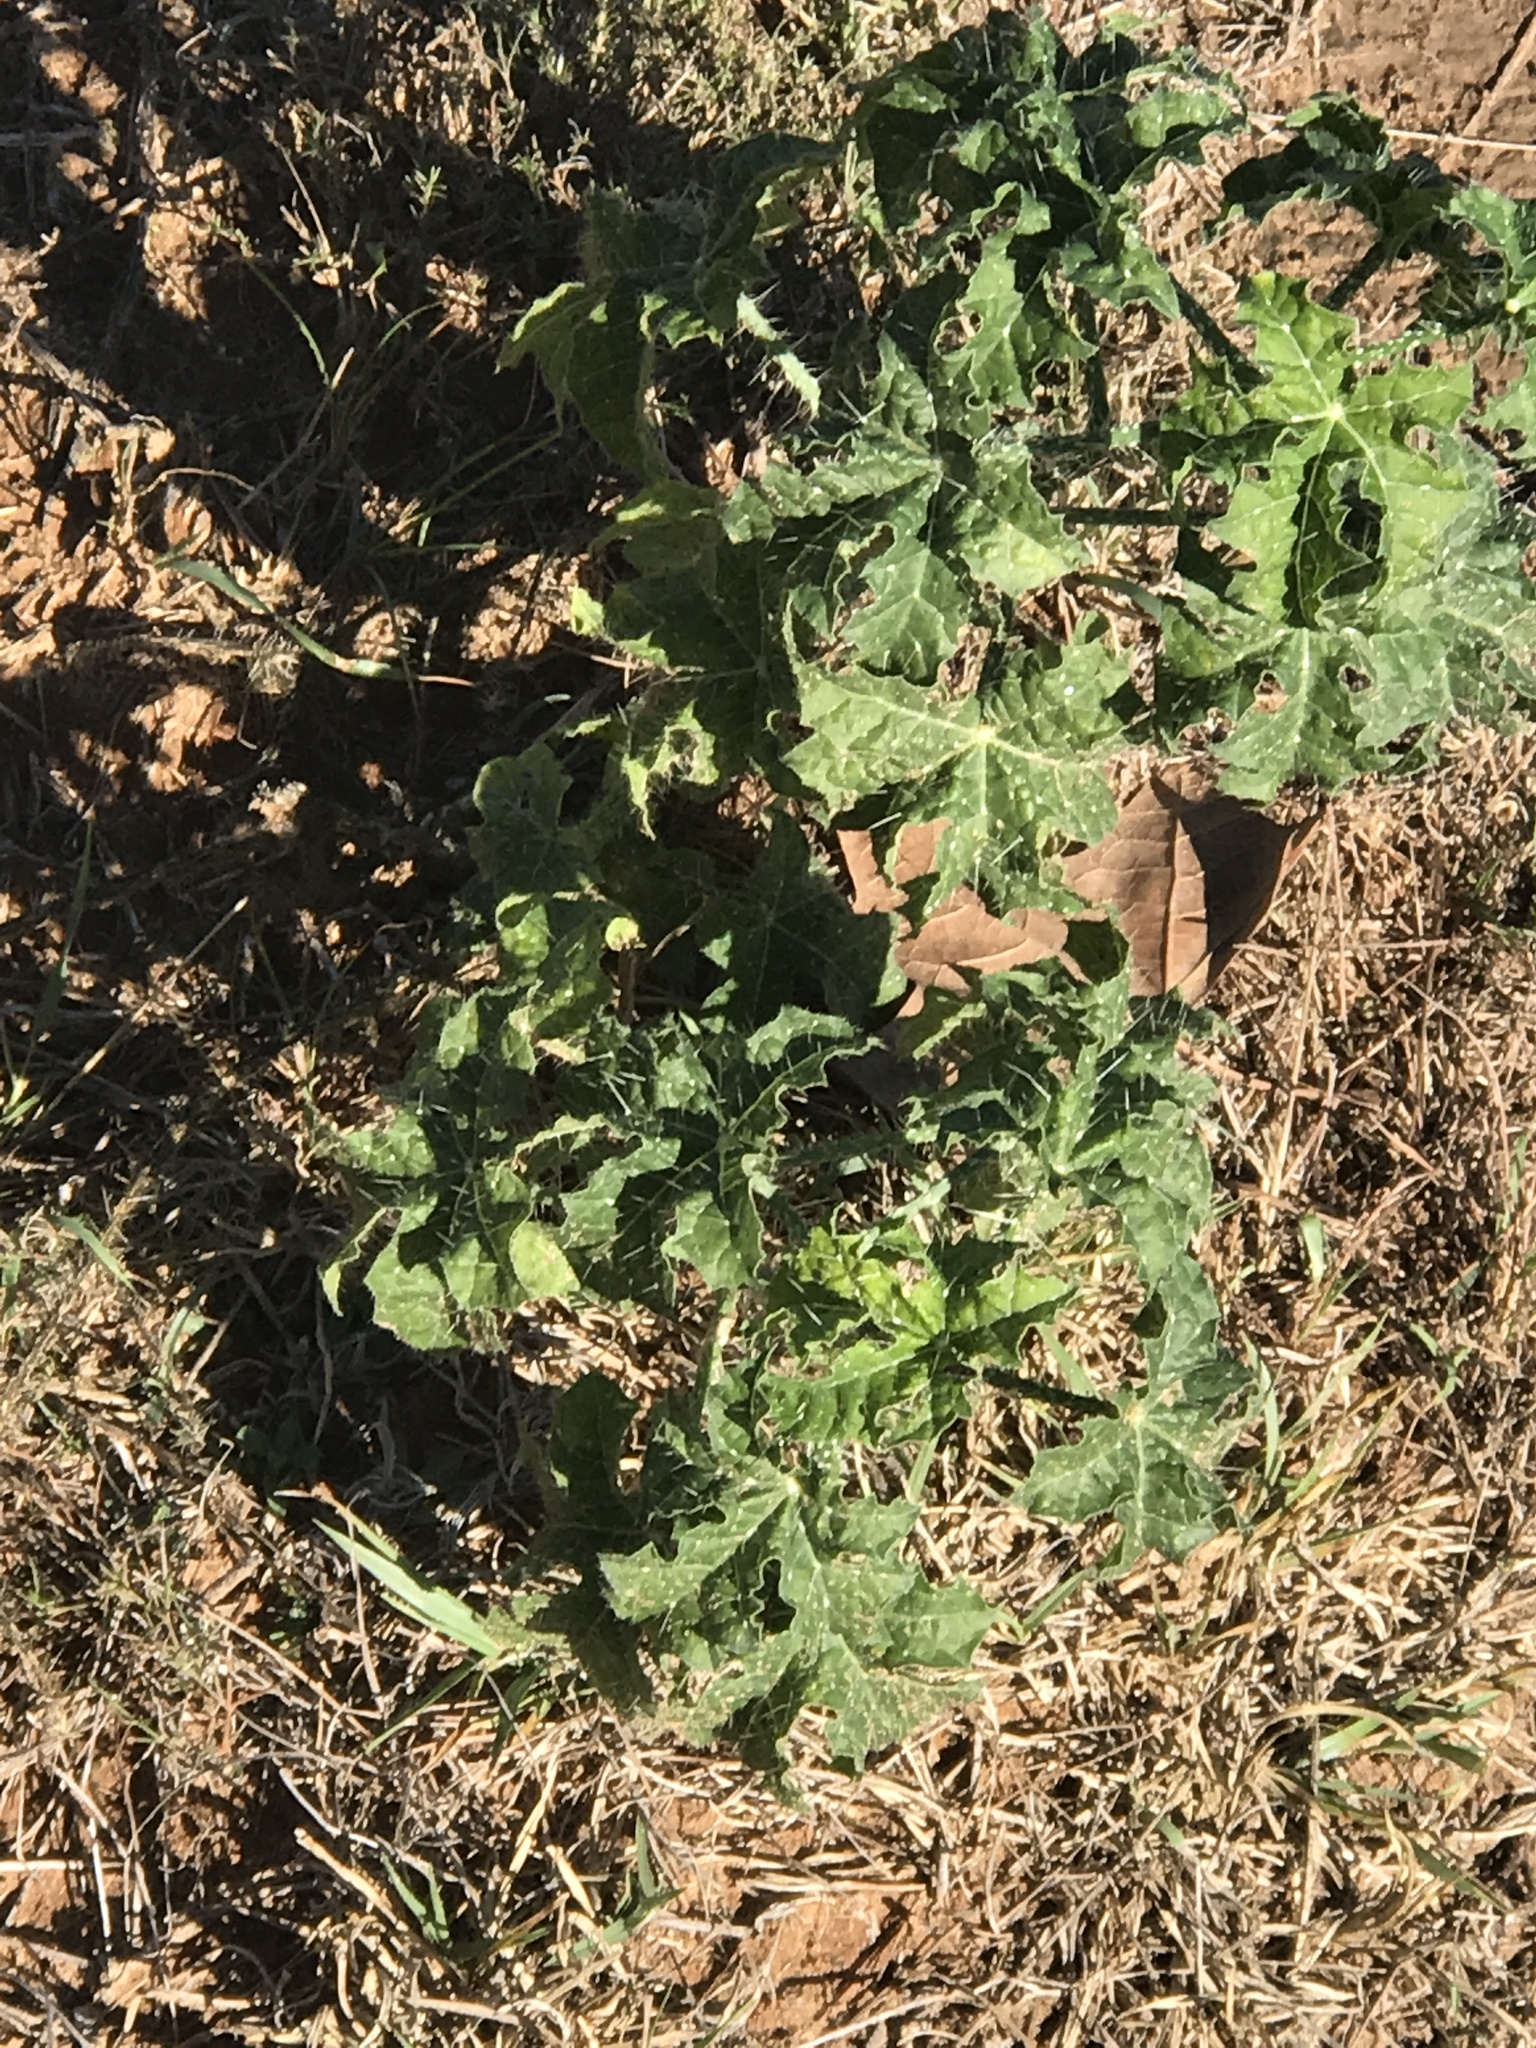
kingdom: Plantae
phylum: Tracheophyta
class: Magnoliopsida
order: Malpighiales
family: Euphorbiaceae
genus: Cnidoscolus
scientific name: Cnidoscolus texanus
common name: Texas bull-nettle
